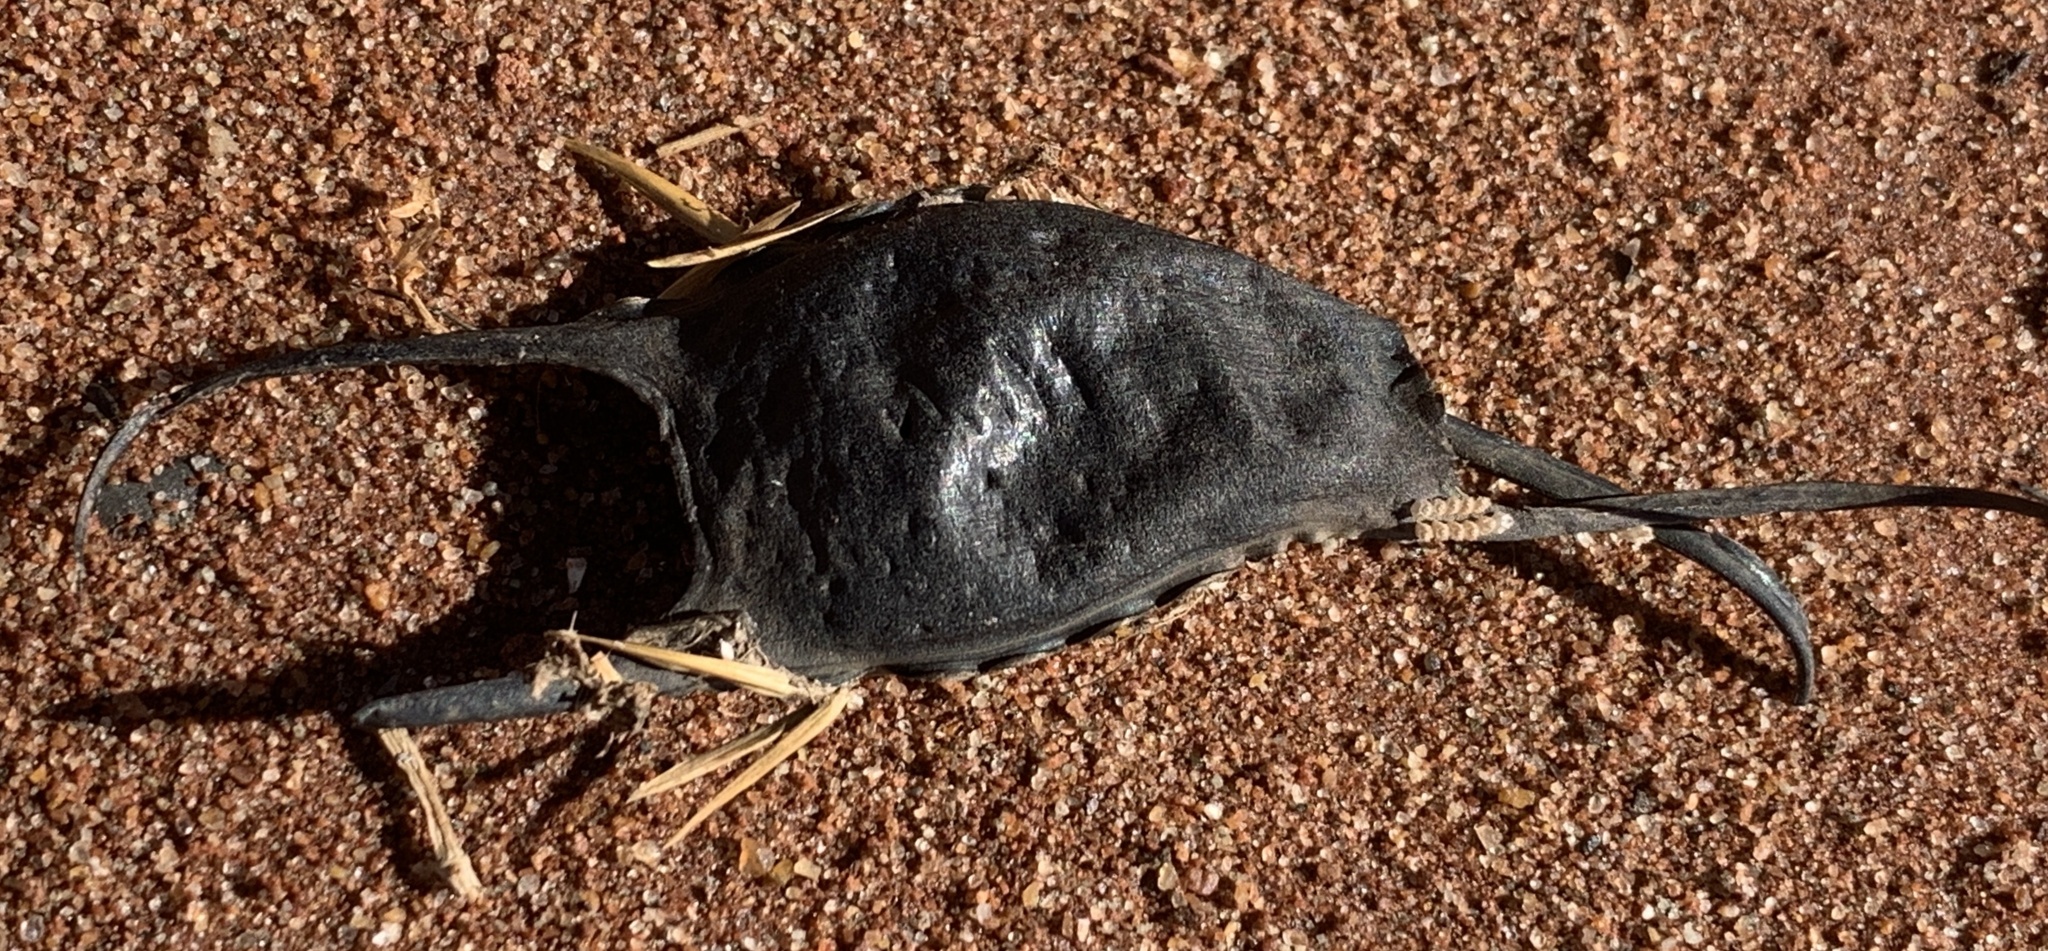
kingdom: Animalia
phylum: Chordata
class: Elasmobranchii
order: Rajiformes
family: Rajidae
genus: Leucoraja
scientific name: Leucoraja erinacea
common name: Little skate
